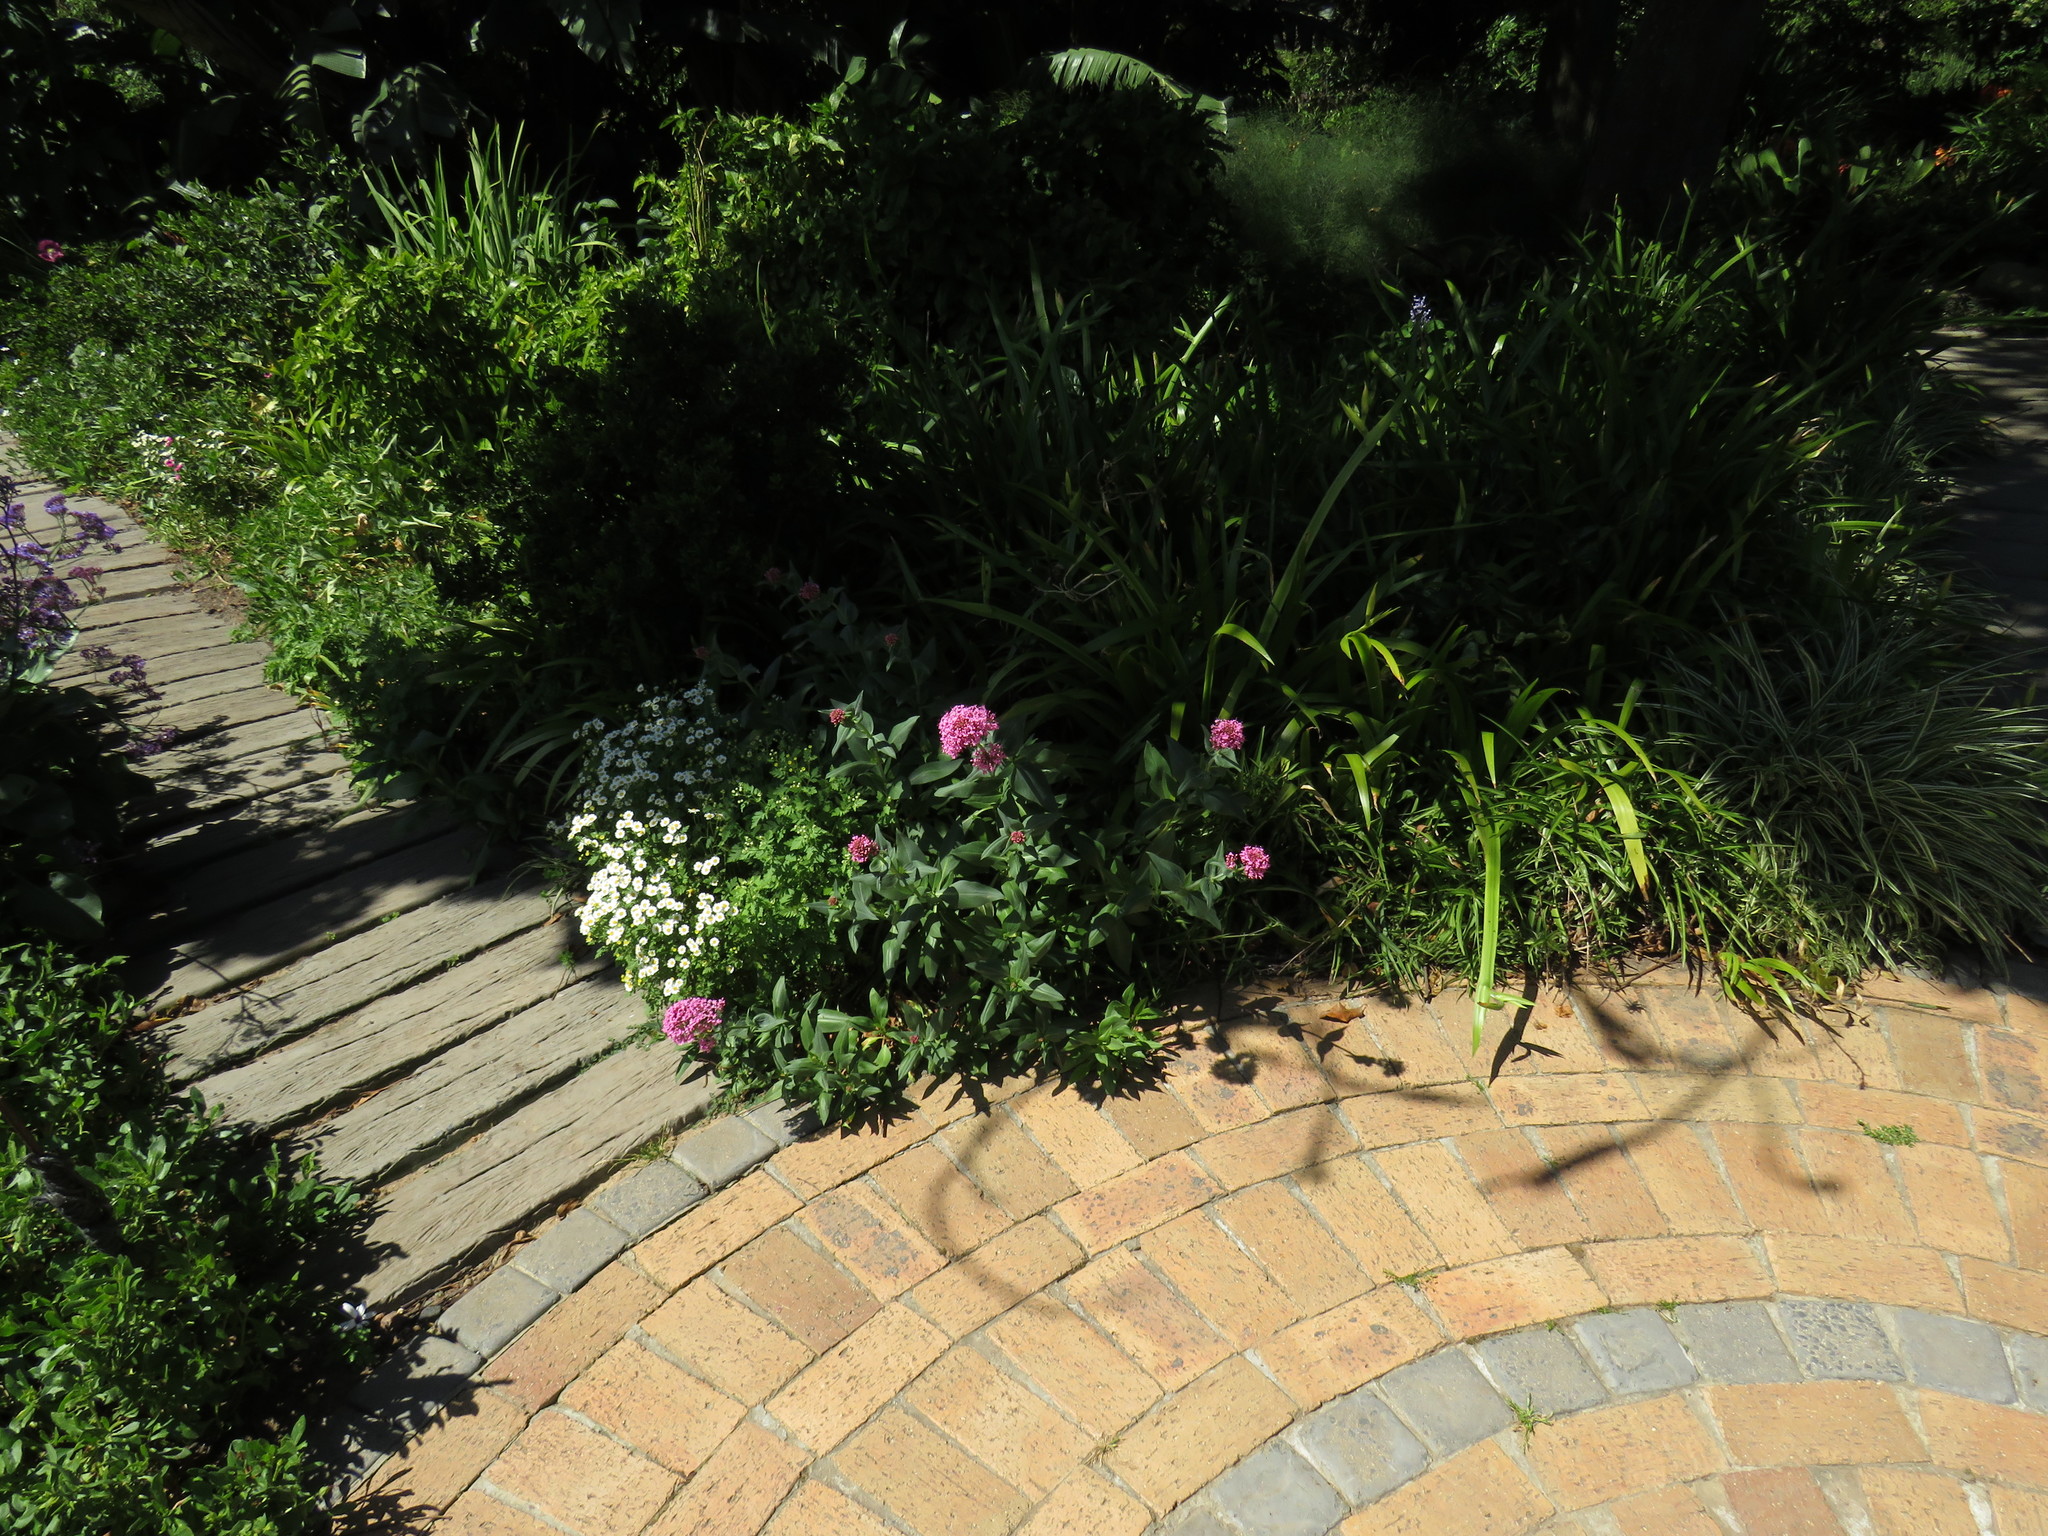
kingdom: Plantae
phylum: Tracheophyta
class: Magnoliopsida
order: Dipsacales
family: Caprifoliaceae
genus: Centranthus
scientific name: Centranthus ruber
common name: Red valerian
